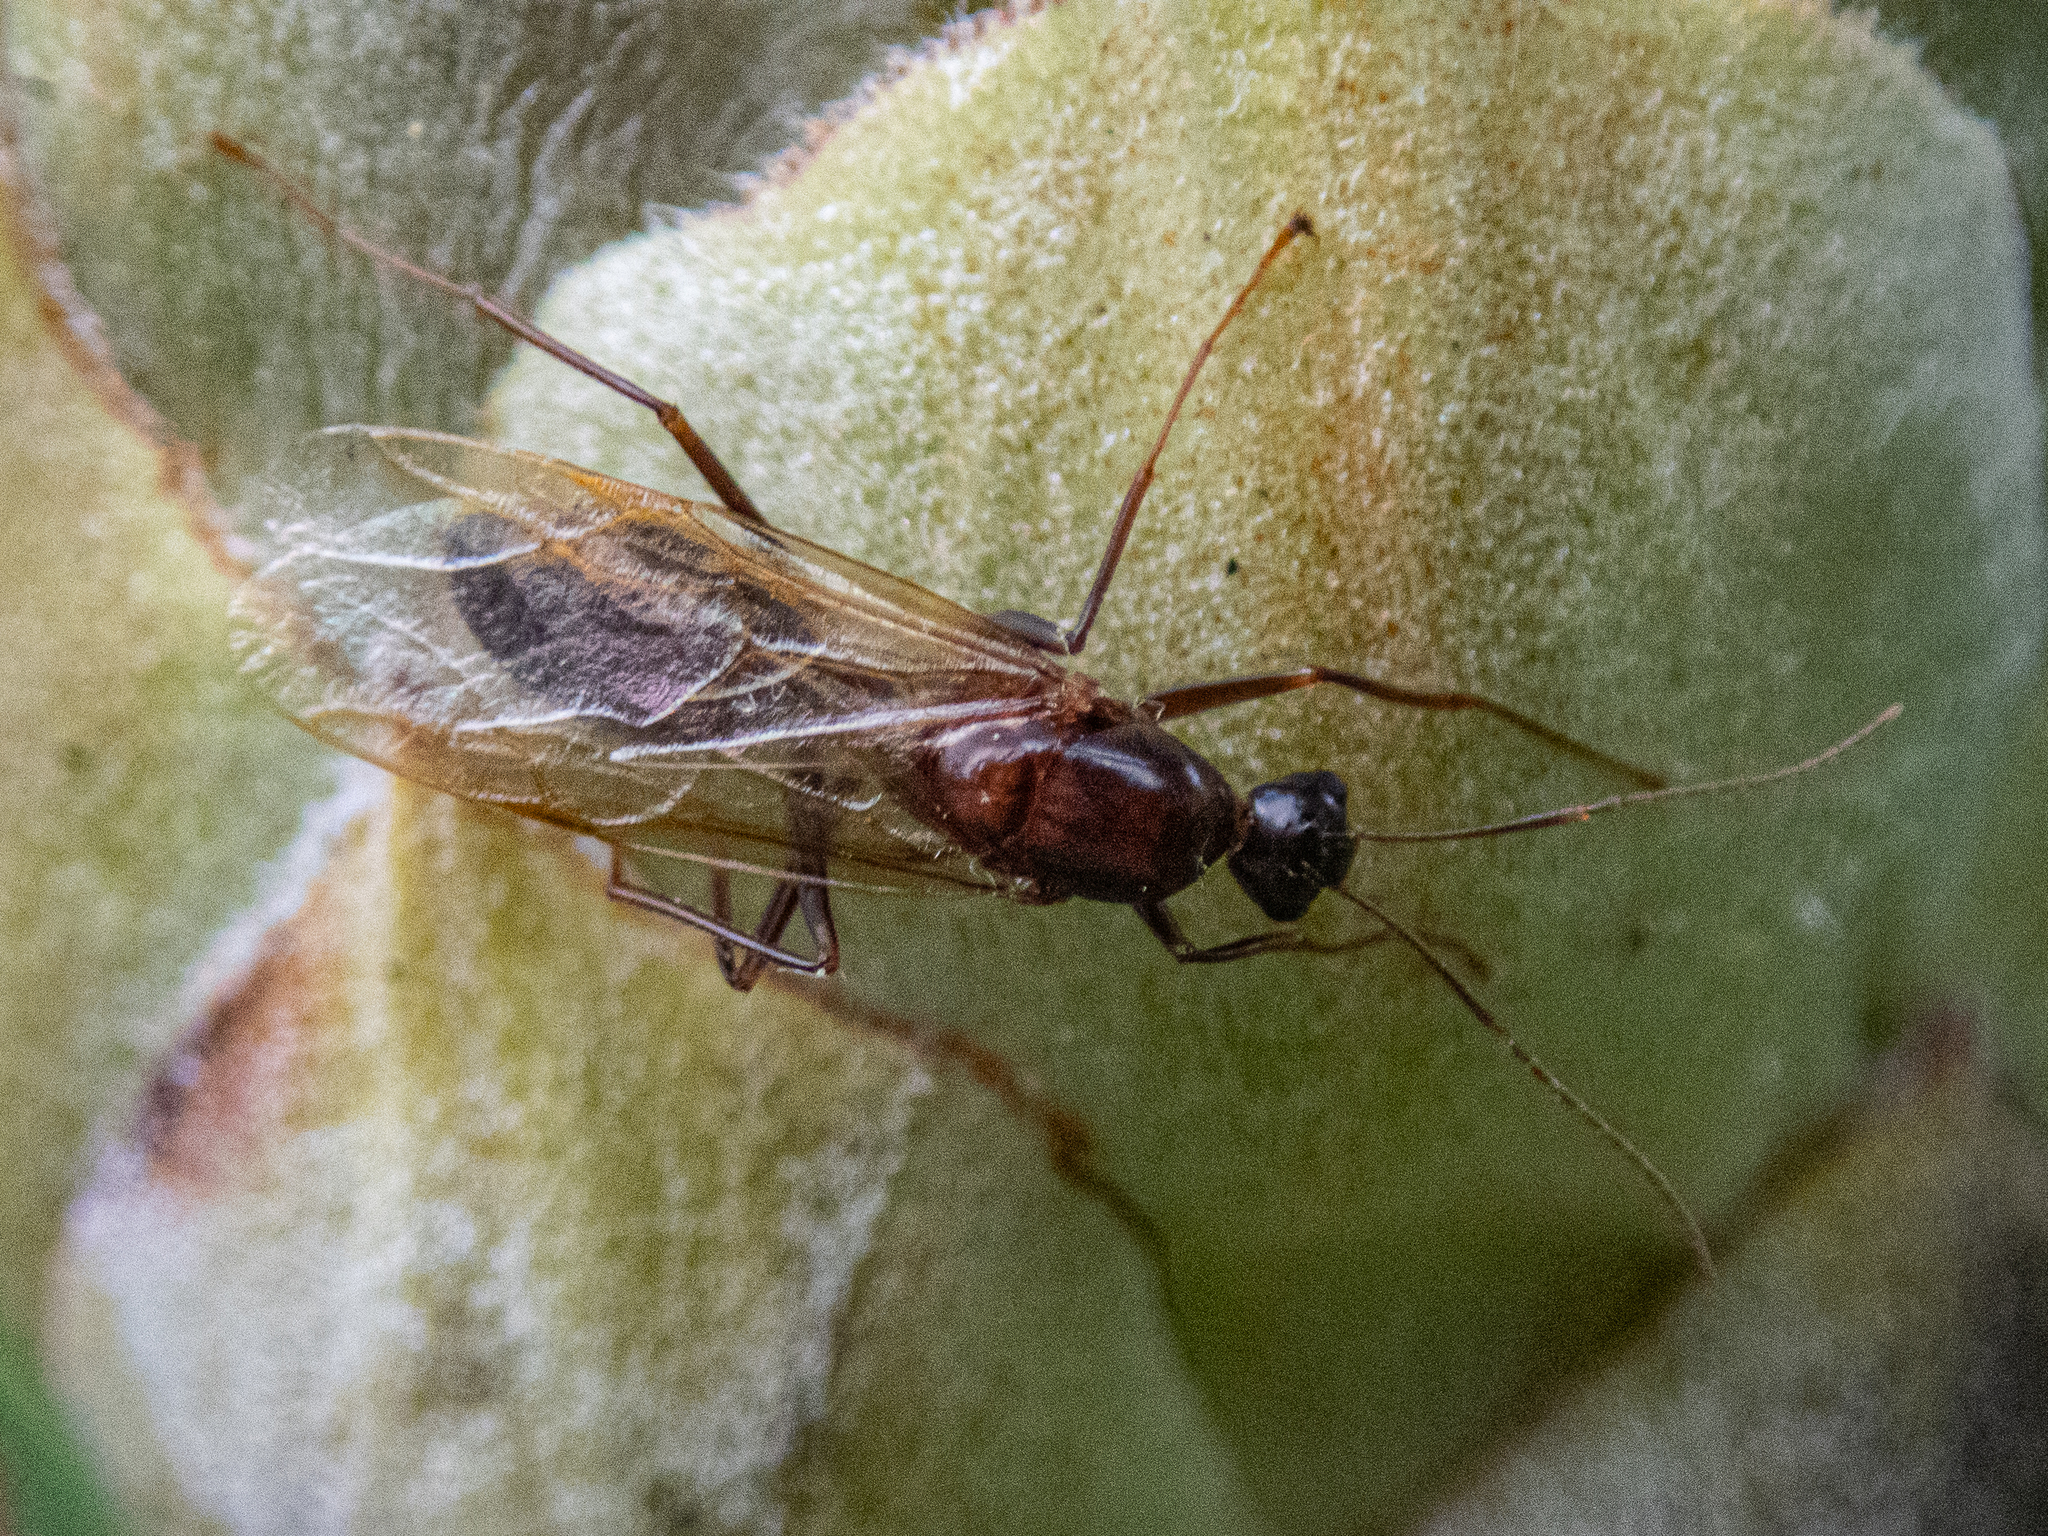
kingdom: Animalia
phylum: Arthropoda
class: Insecta
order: Hymenoptera
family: Formicidae
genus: Camponotus
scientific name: Camponotus americanus
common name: American carpenter ant
